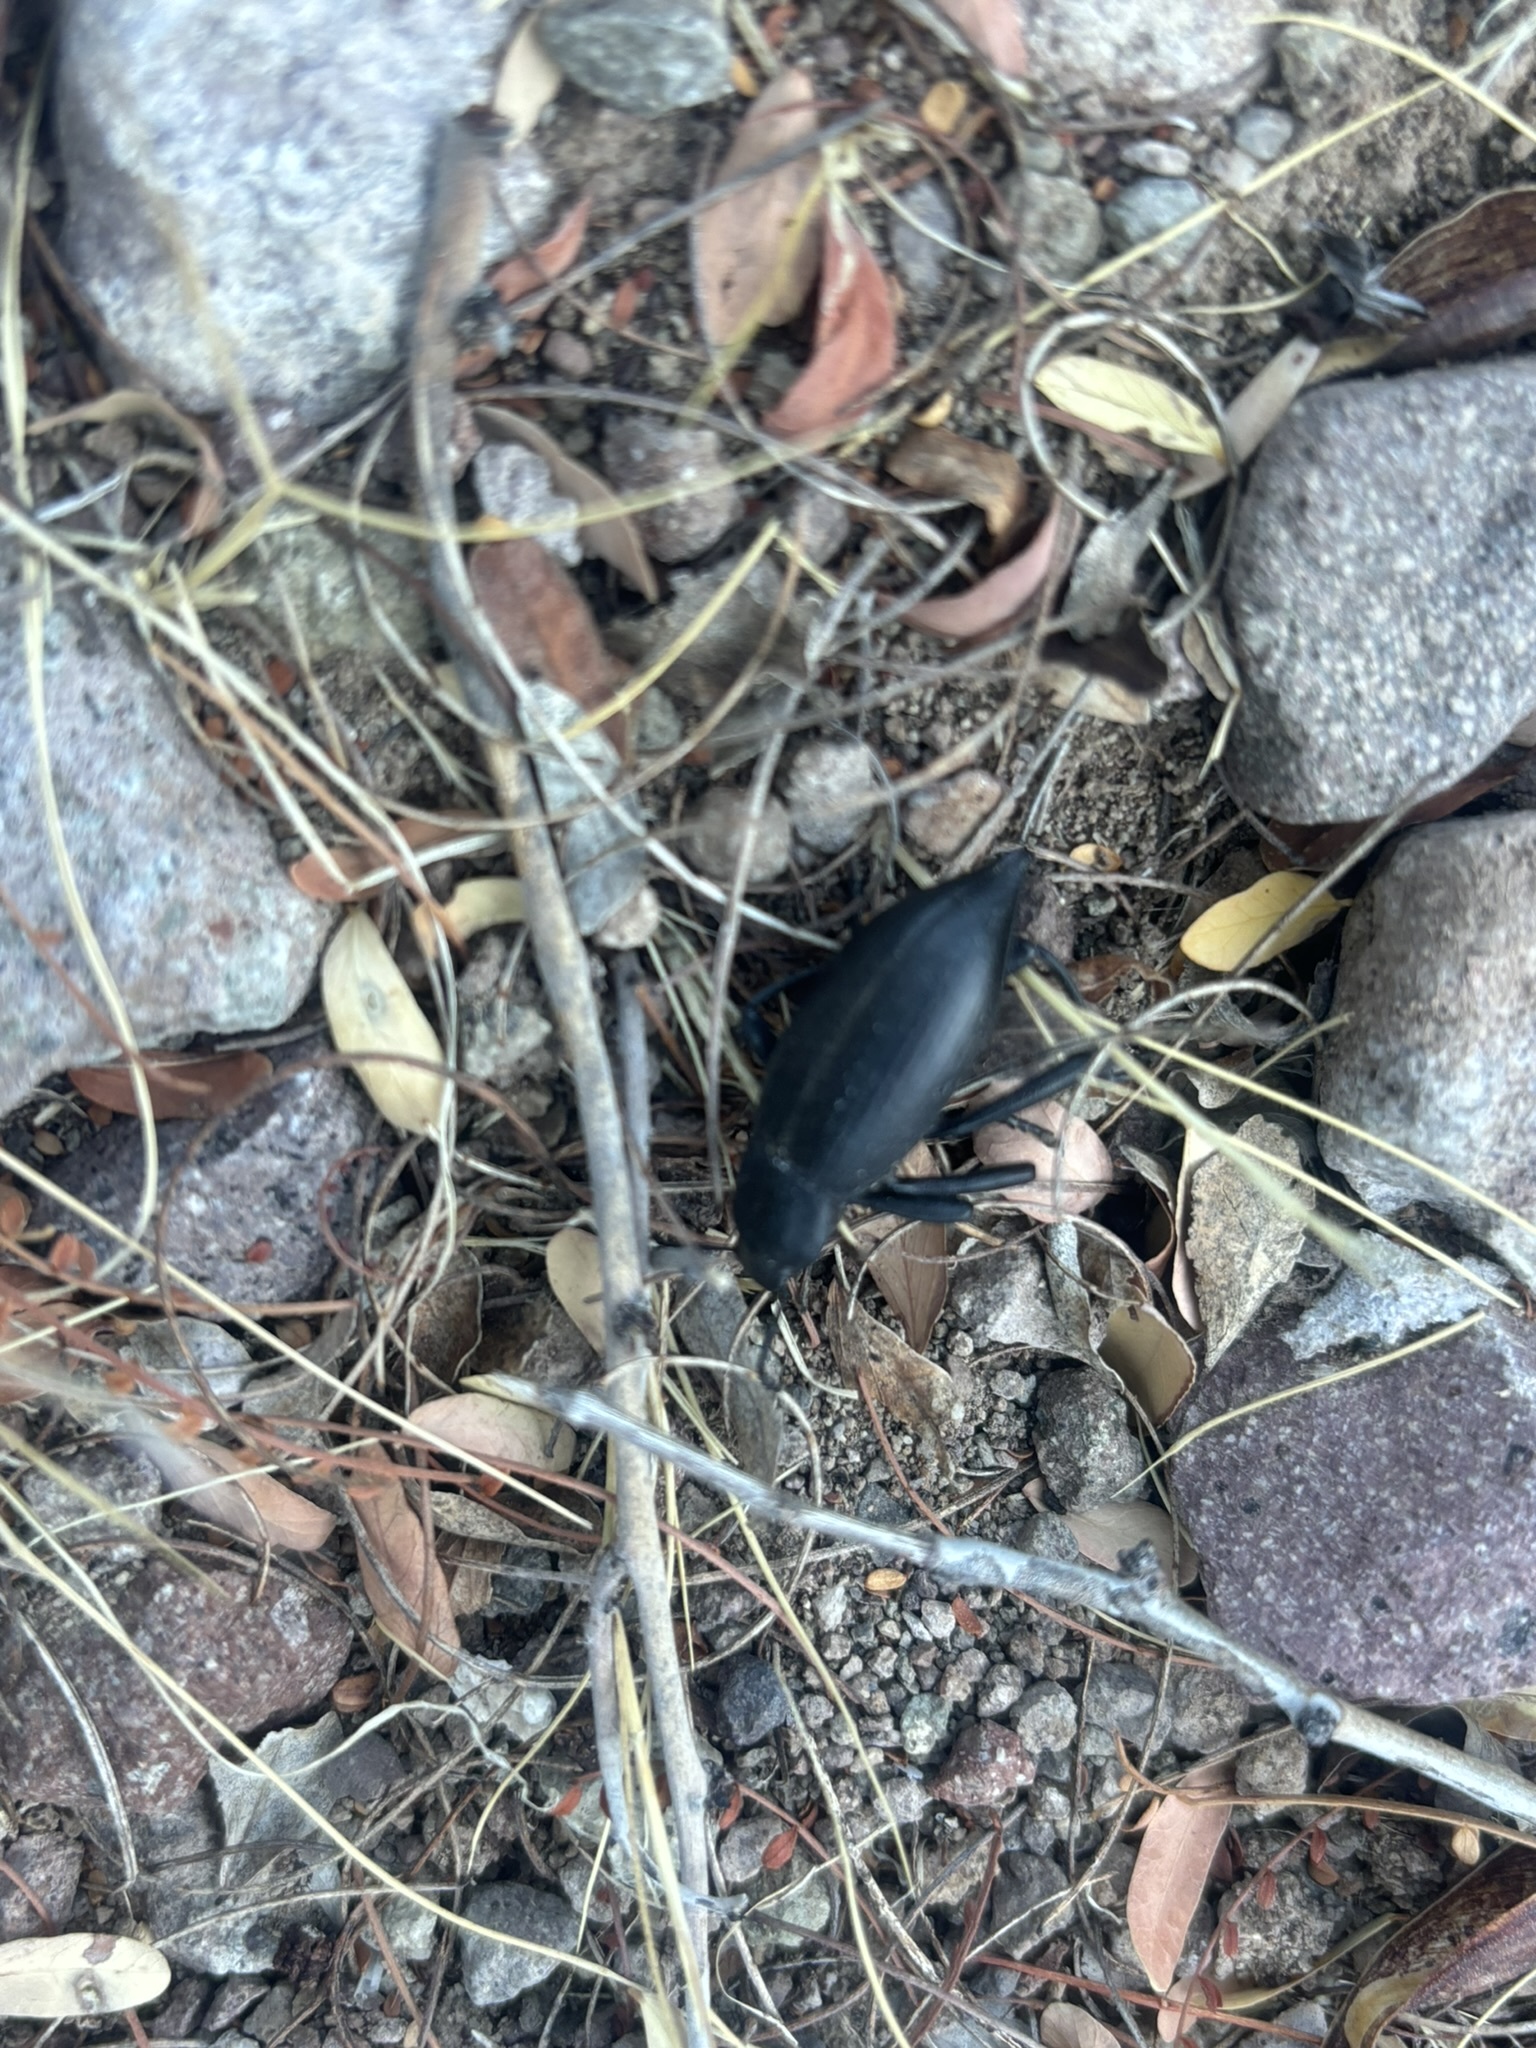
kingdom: Animalia
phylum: Arthropoda
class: Insecta
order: Coleoptera
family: Tenebrionidae
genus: Eleodes
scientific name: Eleodes mexicana
